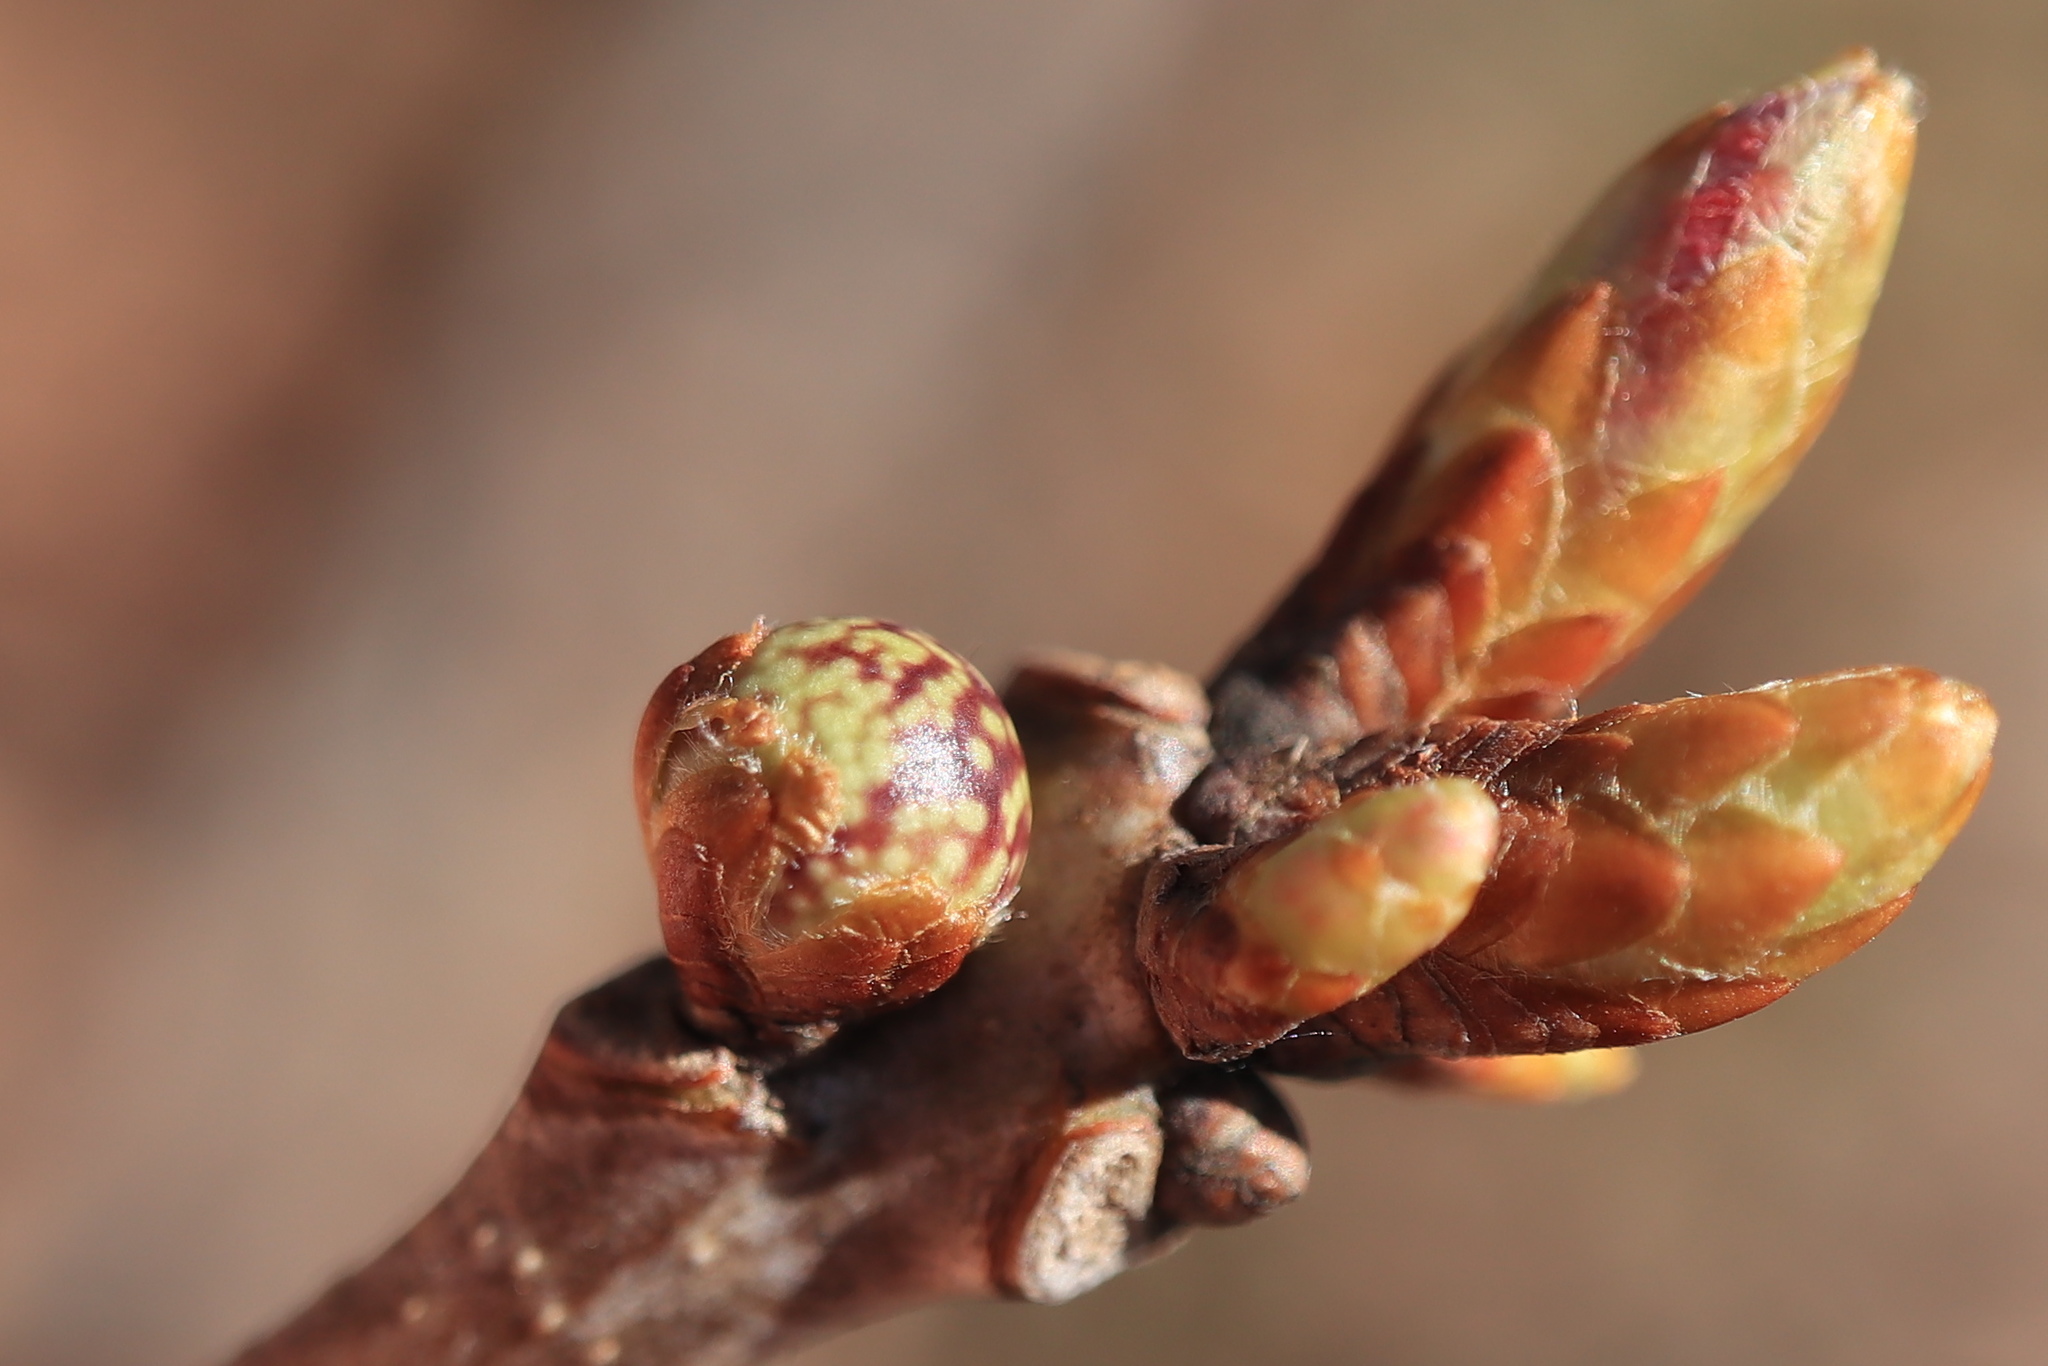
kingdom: Animalia
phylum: Arthropoda
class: Insecta
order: Hymenoptera
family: Cynipidae
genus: Andricus
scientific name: Andricus
